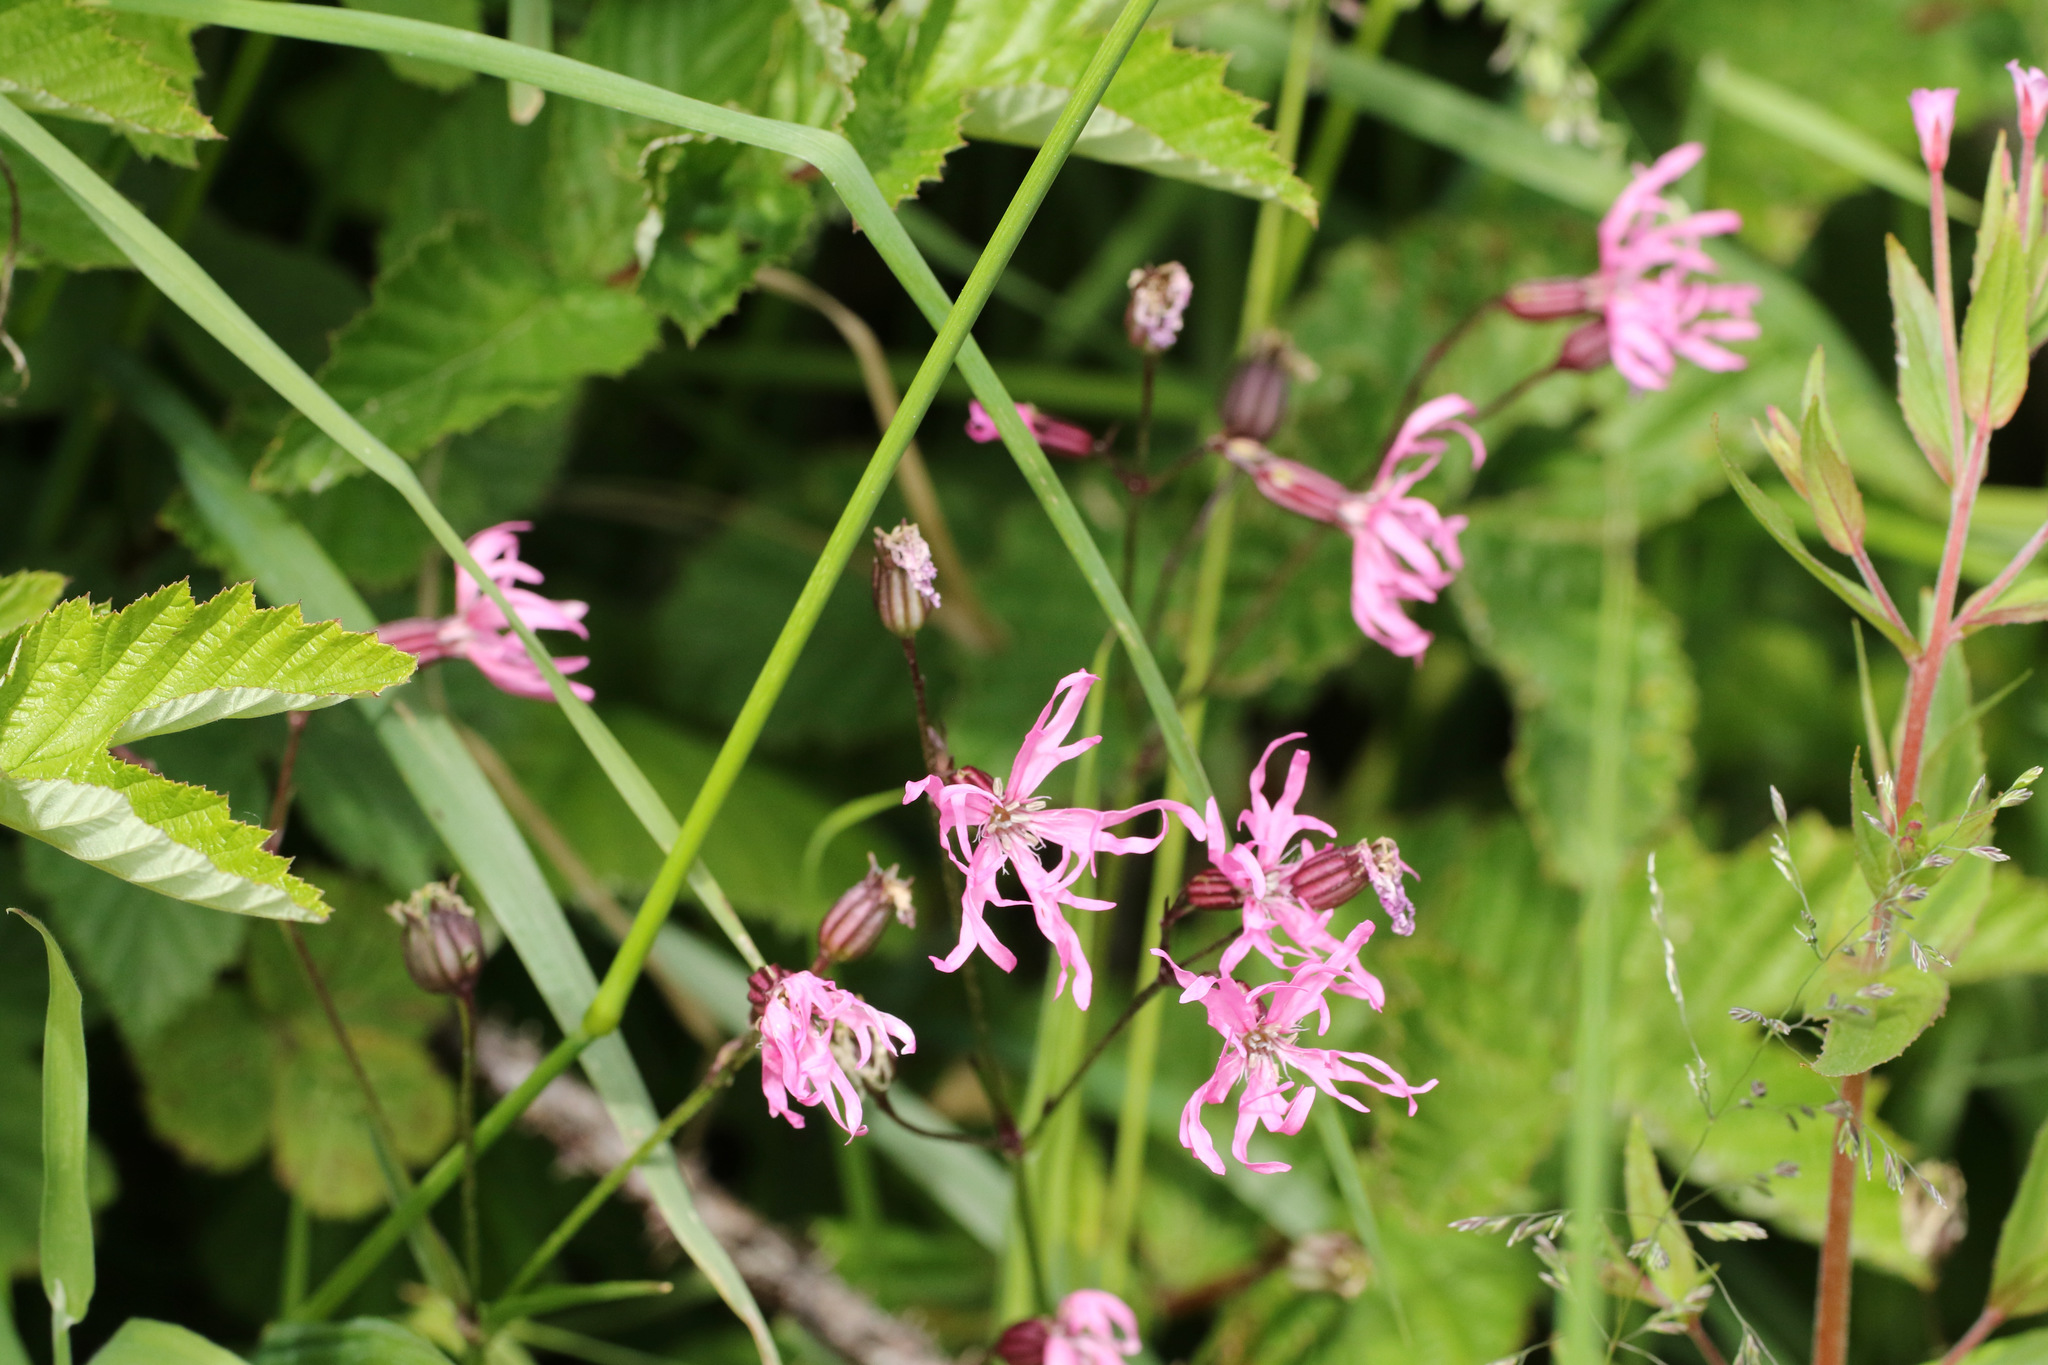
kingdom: Plantae
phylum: Tracheophyta
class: Magnoliopsida
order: Caryophyllales
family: Caryophyllaceae
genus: Silene
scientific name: Silene flos-cuculi
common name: Ragged-robin
